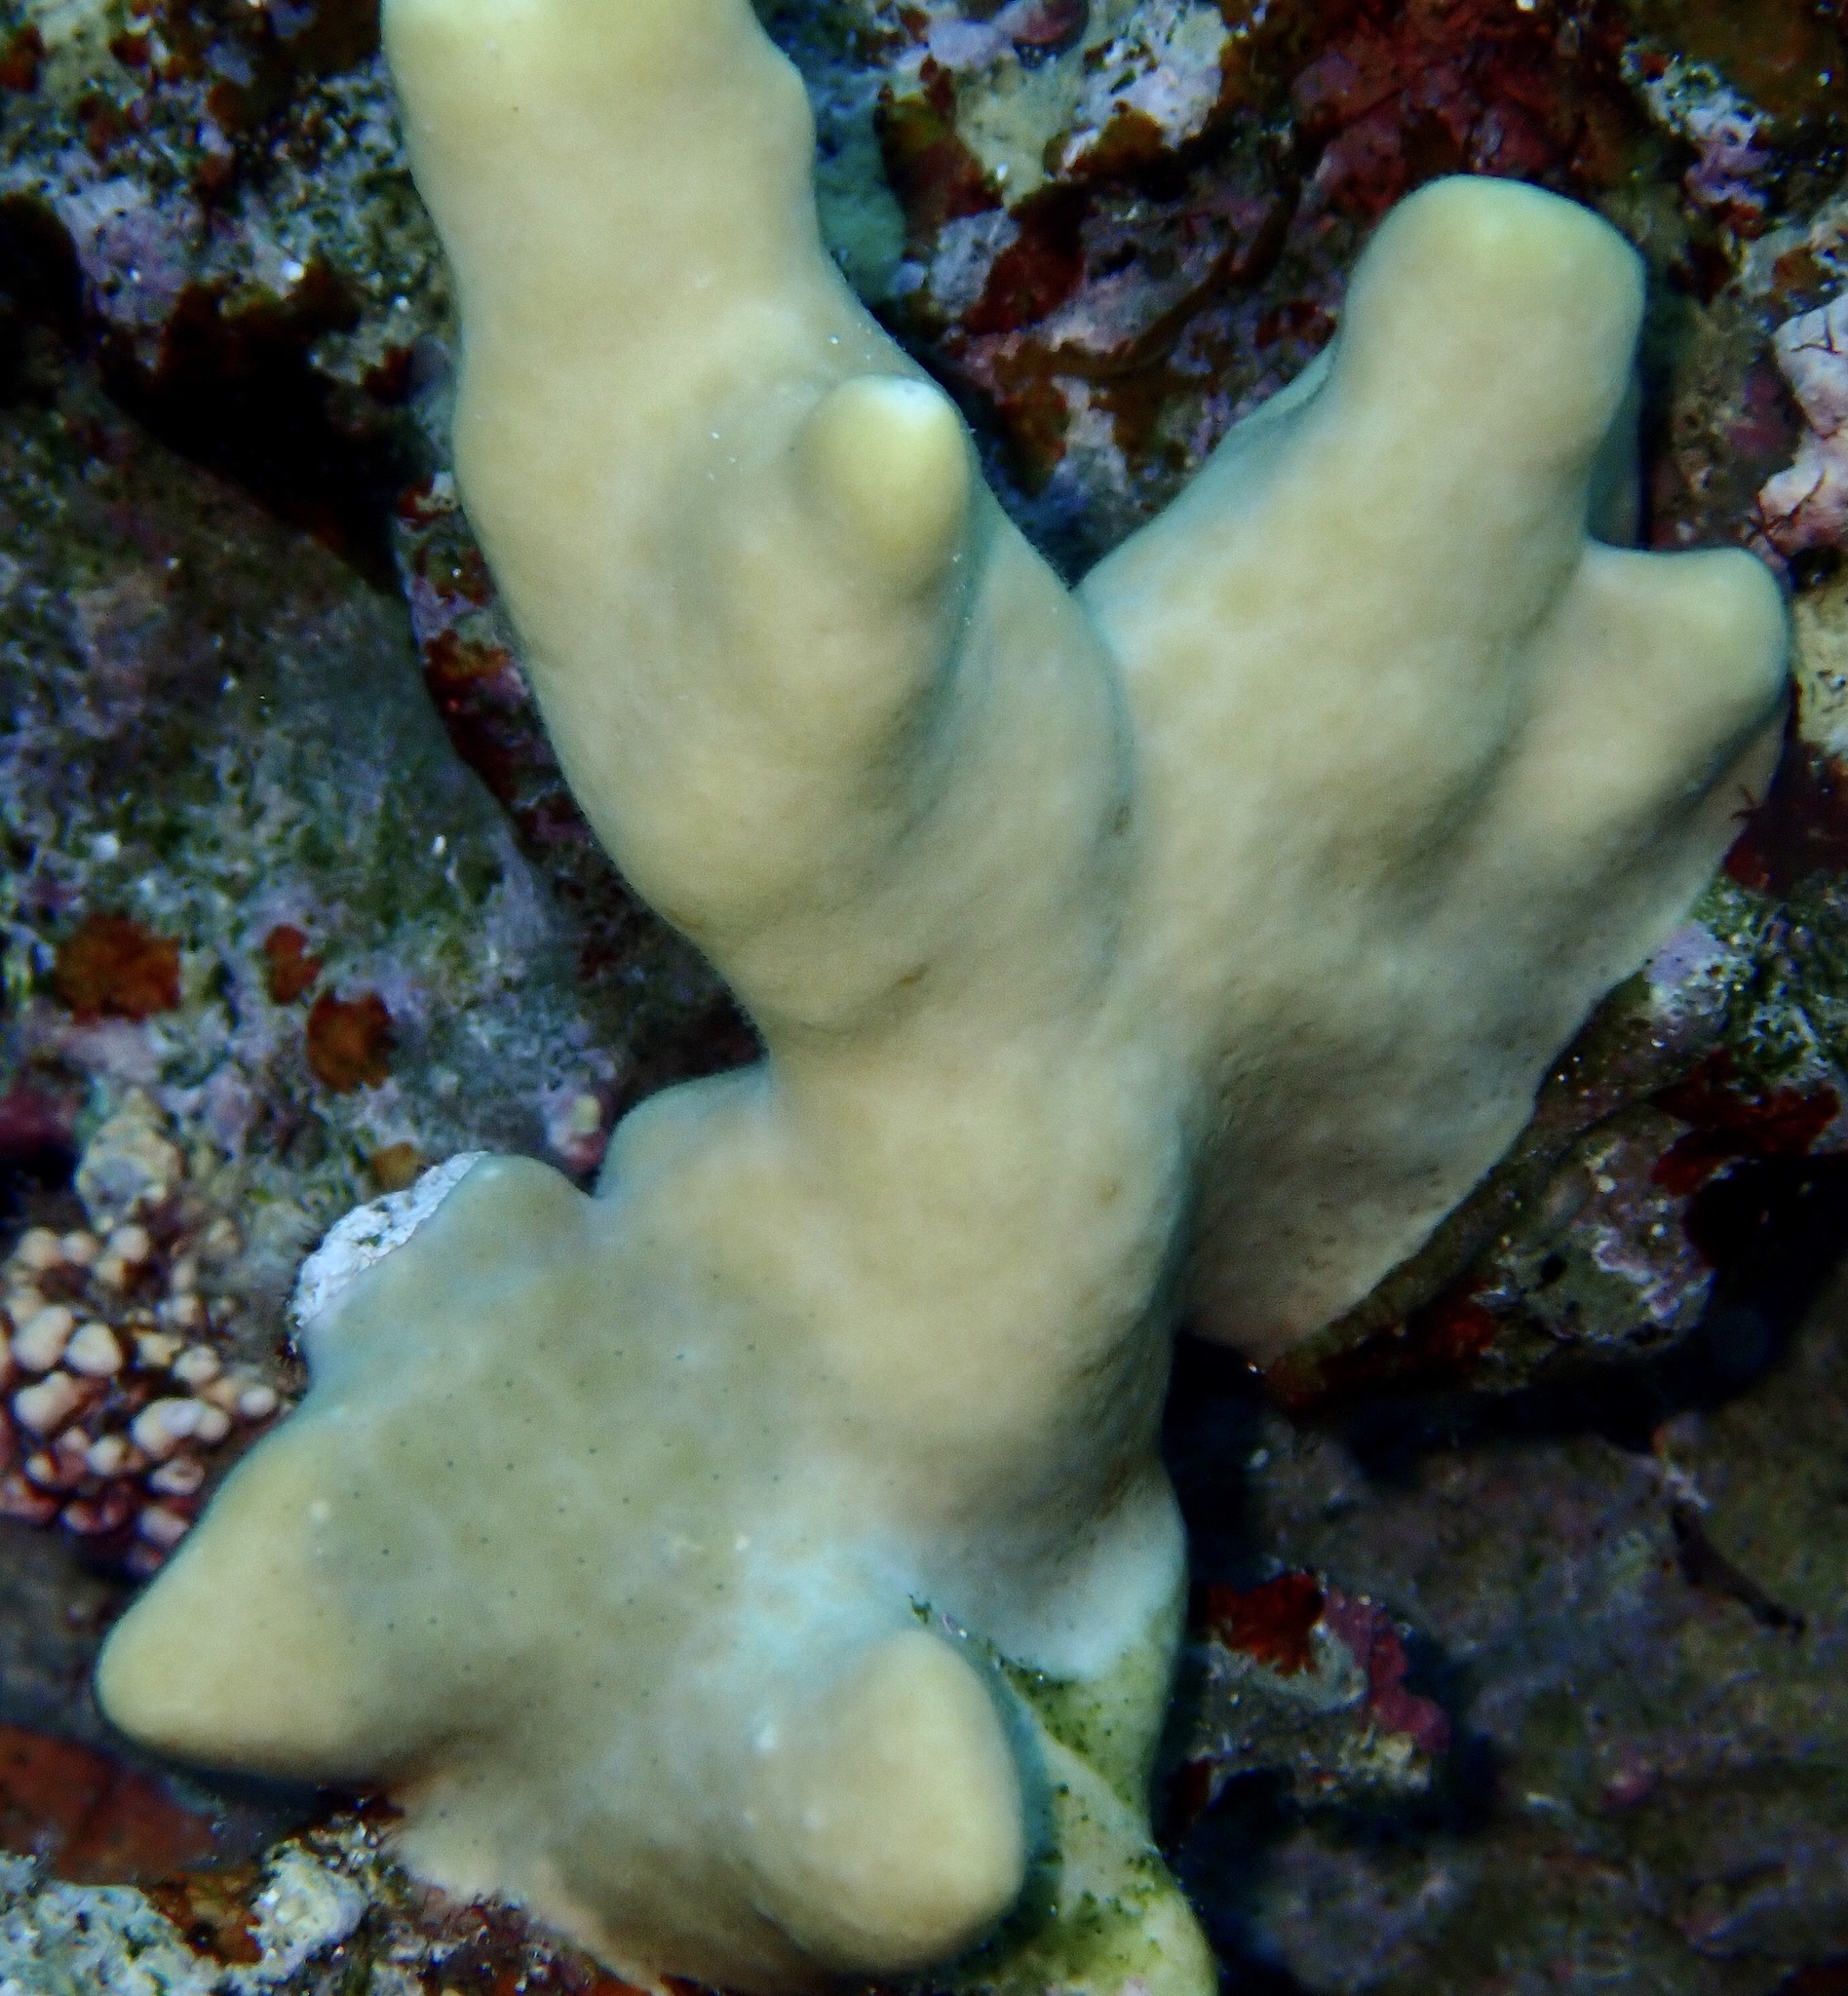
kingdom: Animalia
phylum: Cnidaria
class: Hydrozoa
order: Anthoathecata
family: Milleporidae
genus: Millepora
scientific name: Millepora exaesa
